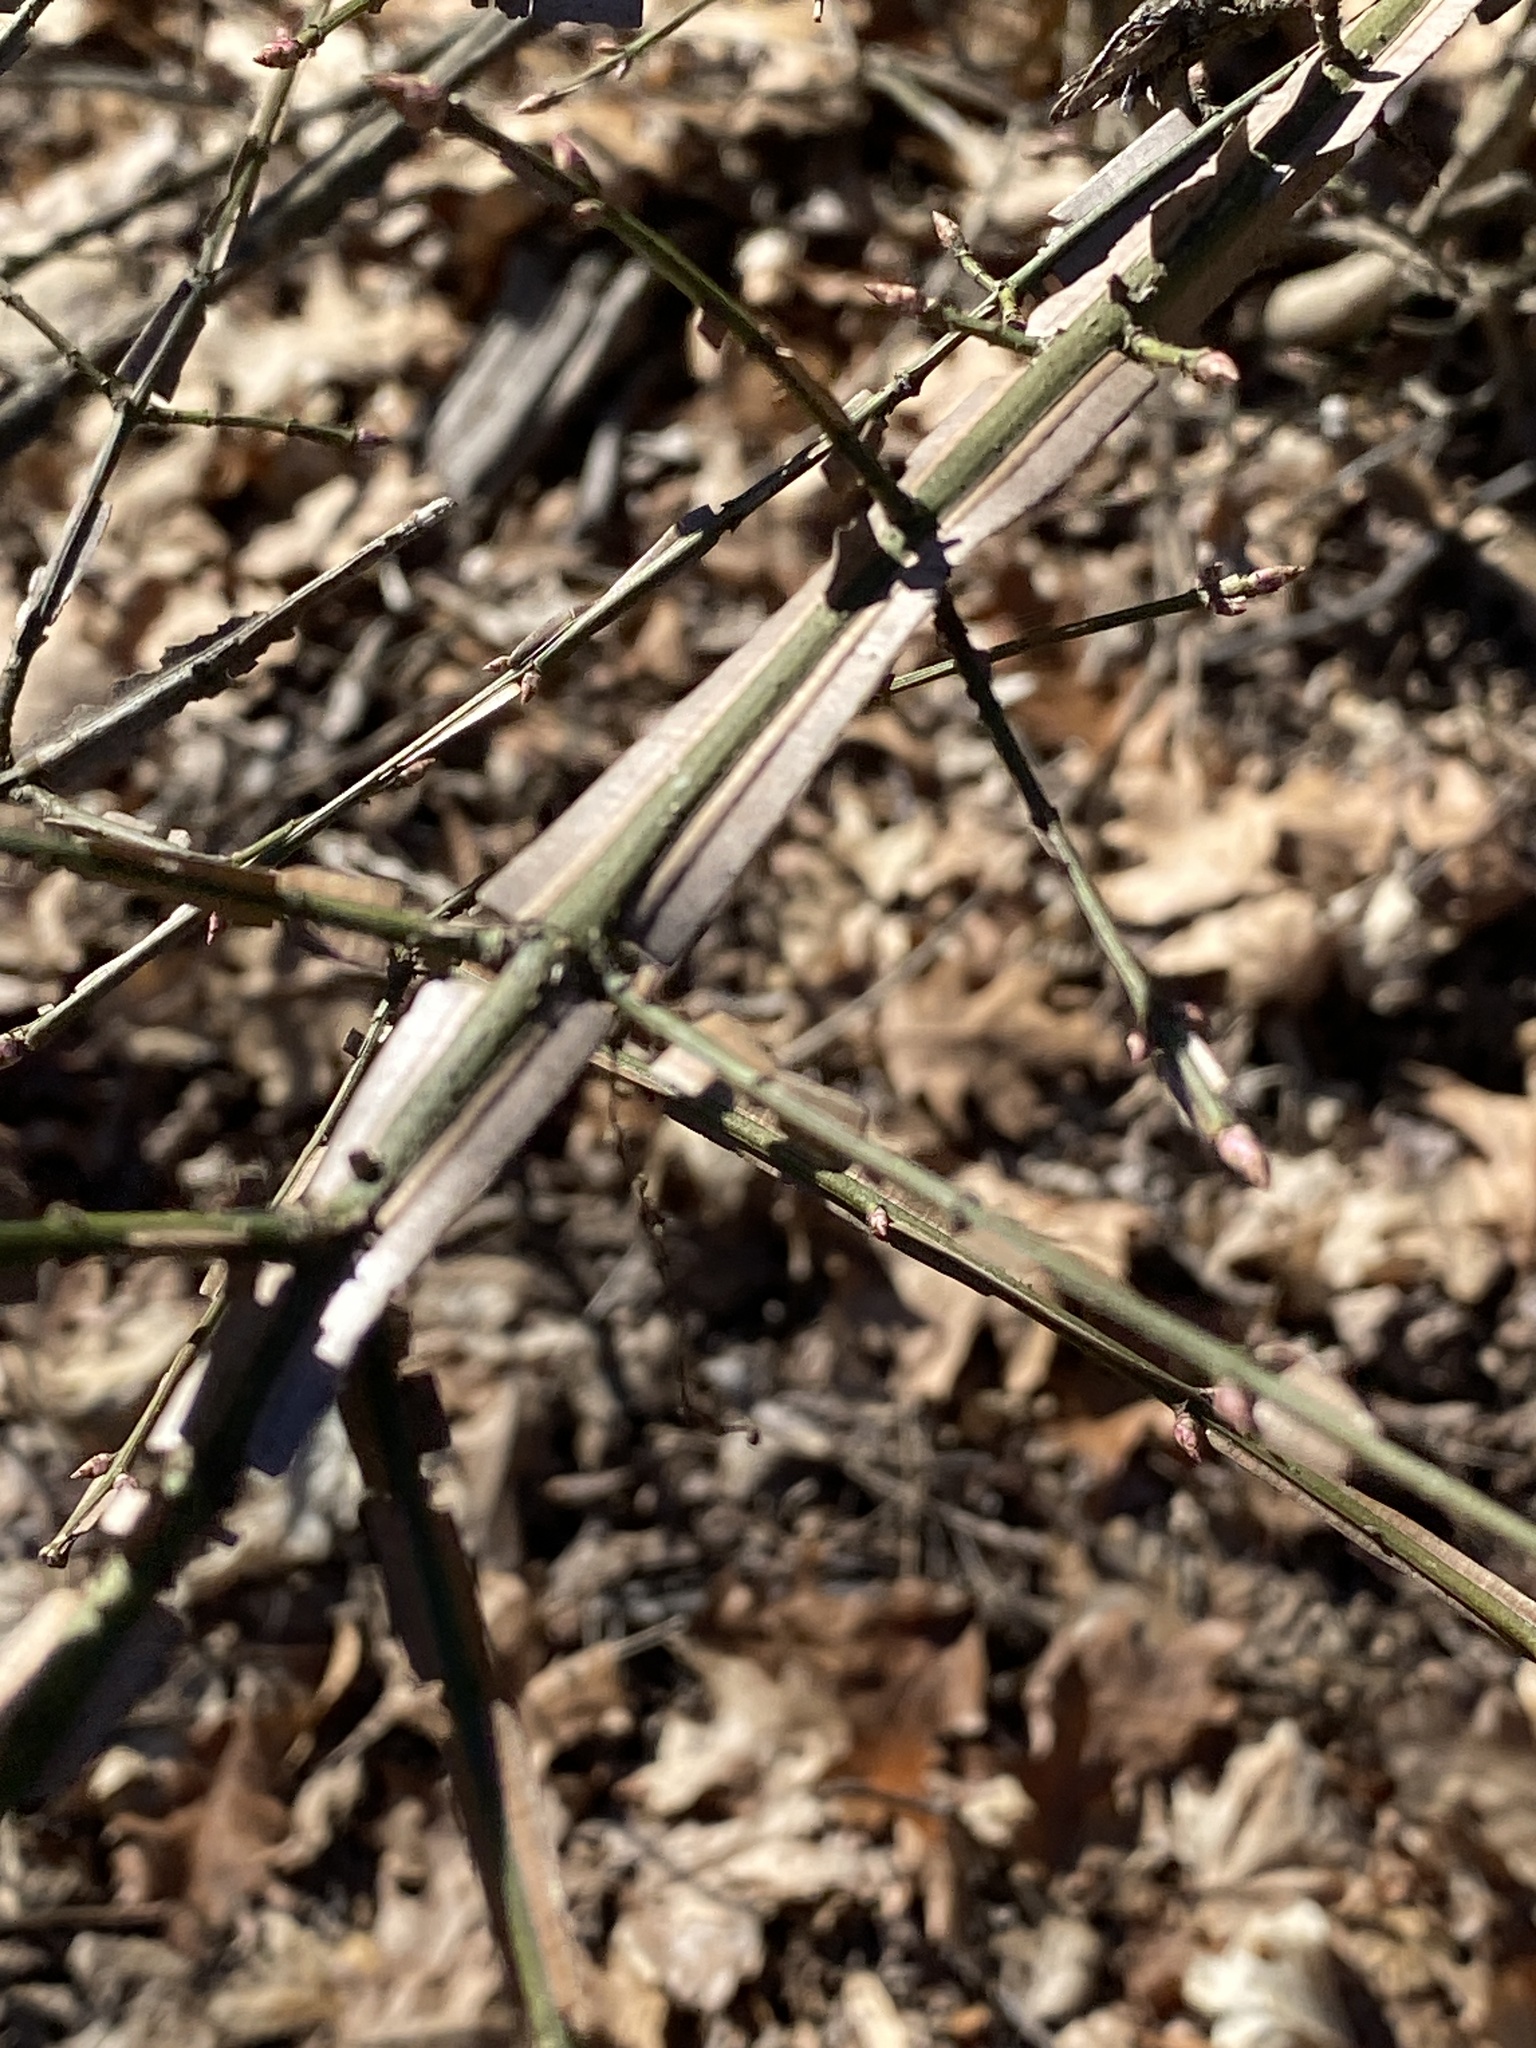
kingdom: Plantae
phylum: Tracheophyta
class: Magnoliopsida
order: Celastrales
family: Celastraceae
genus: Euonymus
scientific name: Euonymus alatus
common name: Winged euonymus
